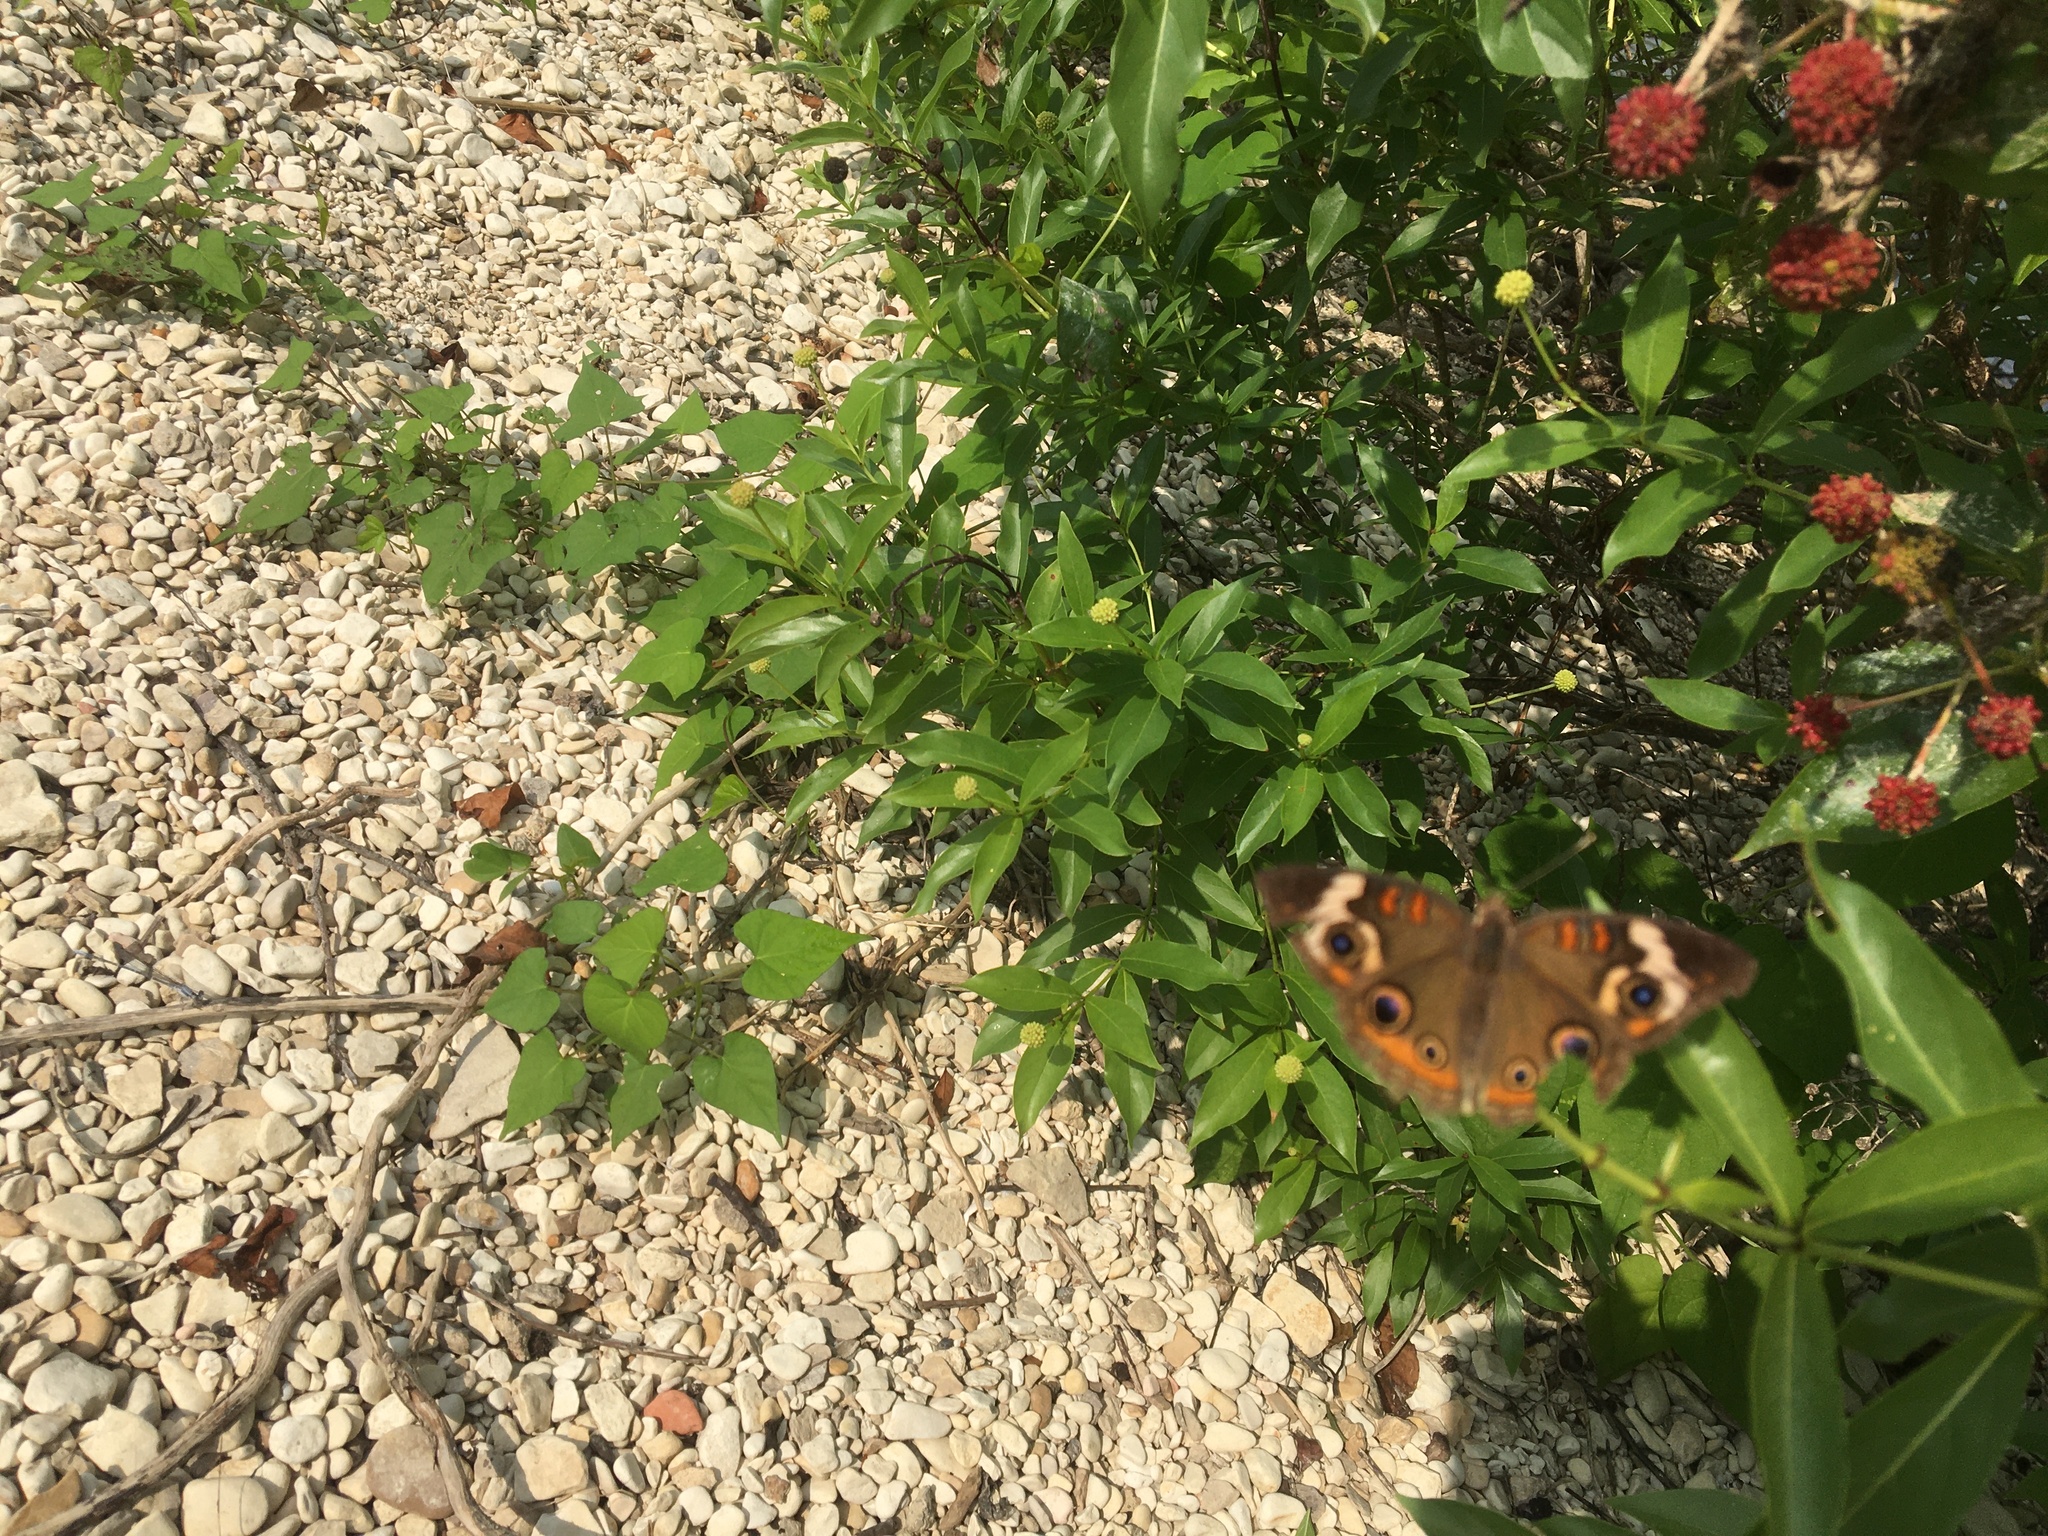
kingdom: Animalia
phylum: Arthropoda
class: Insecta
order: Lepidoptera
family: Nymphalidae
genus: Junonia
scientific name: Junonia coenia
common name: Common buckeye
